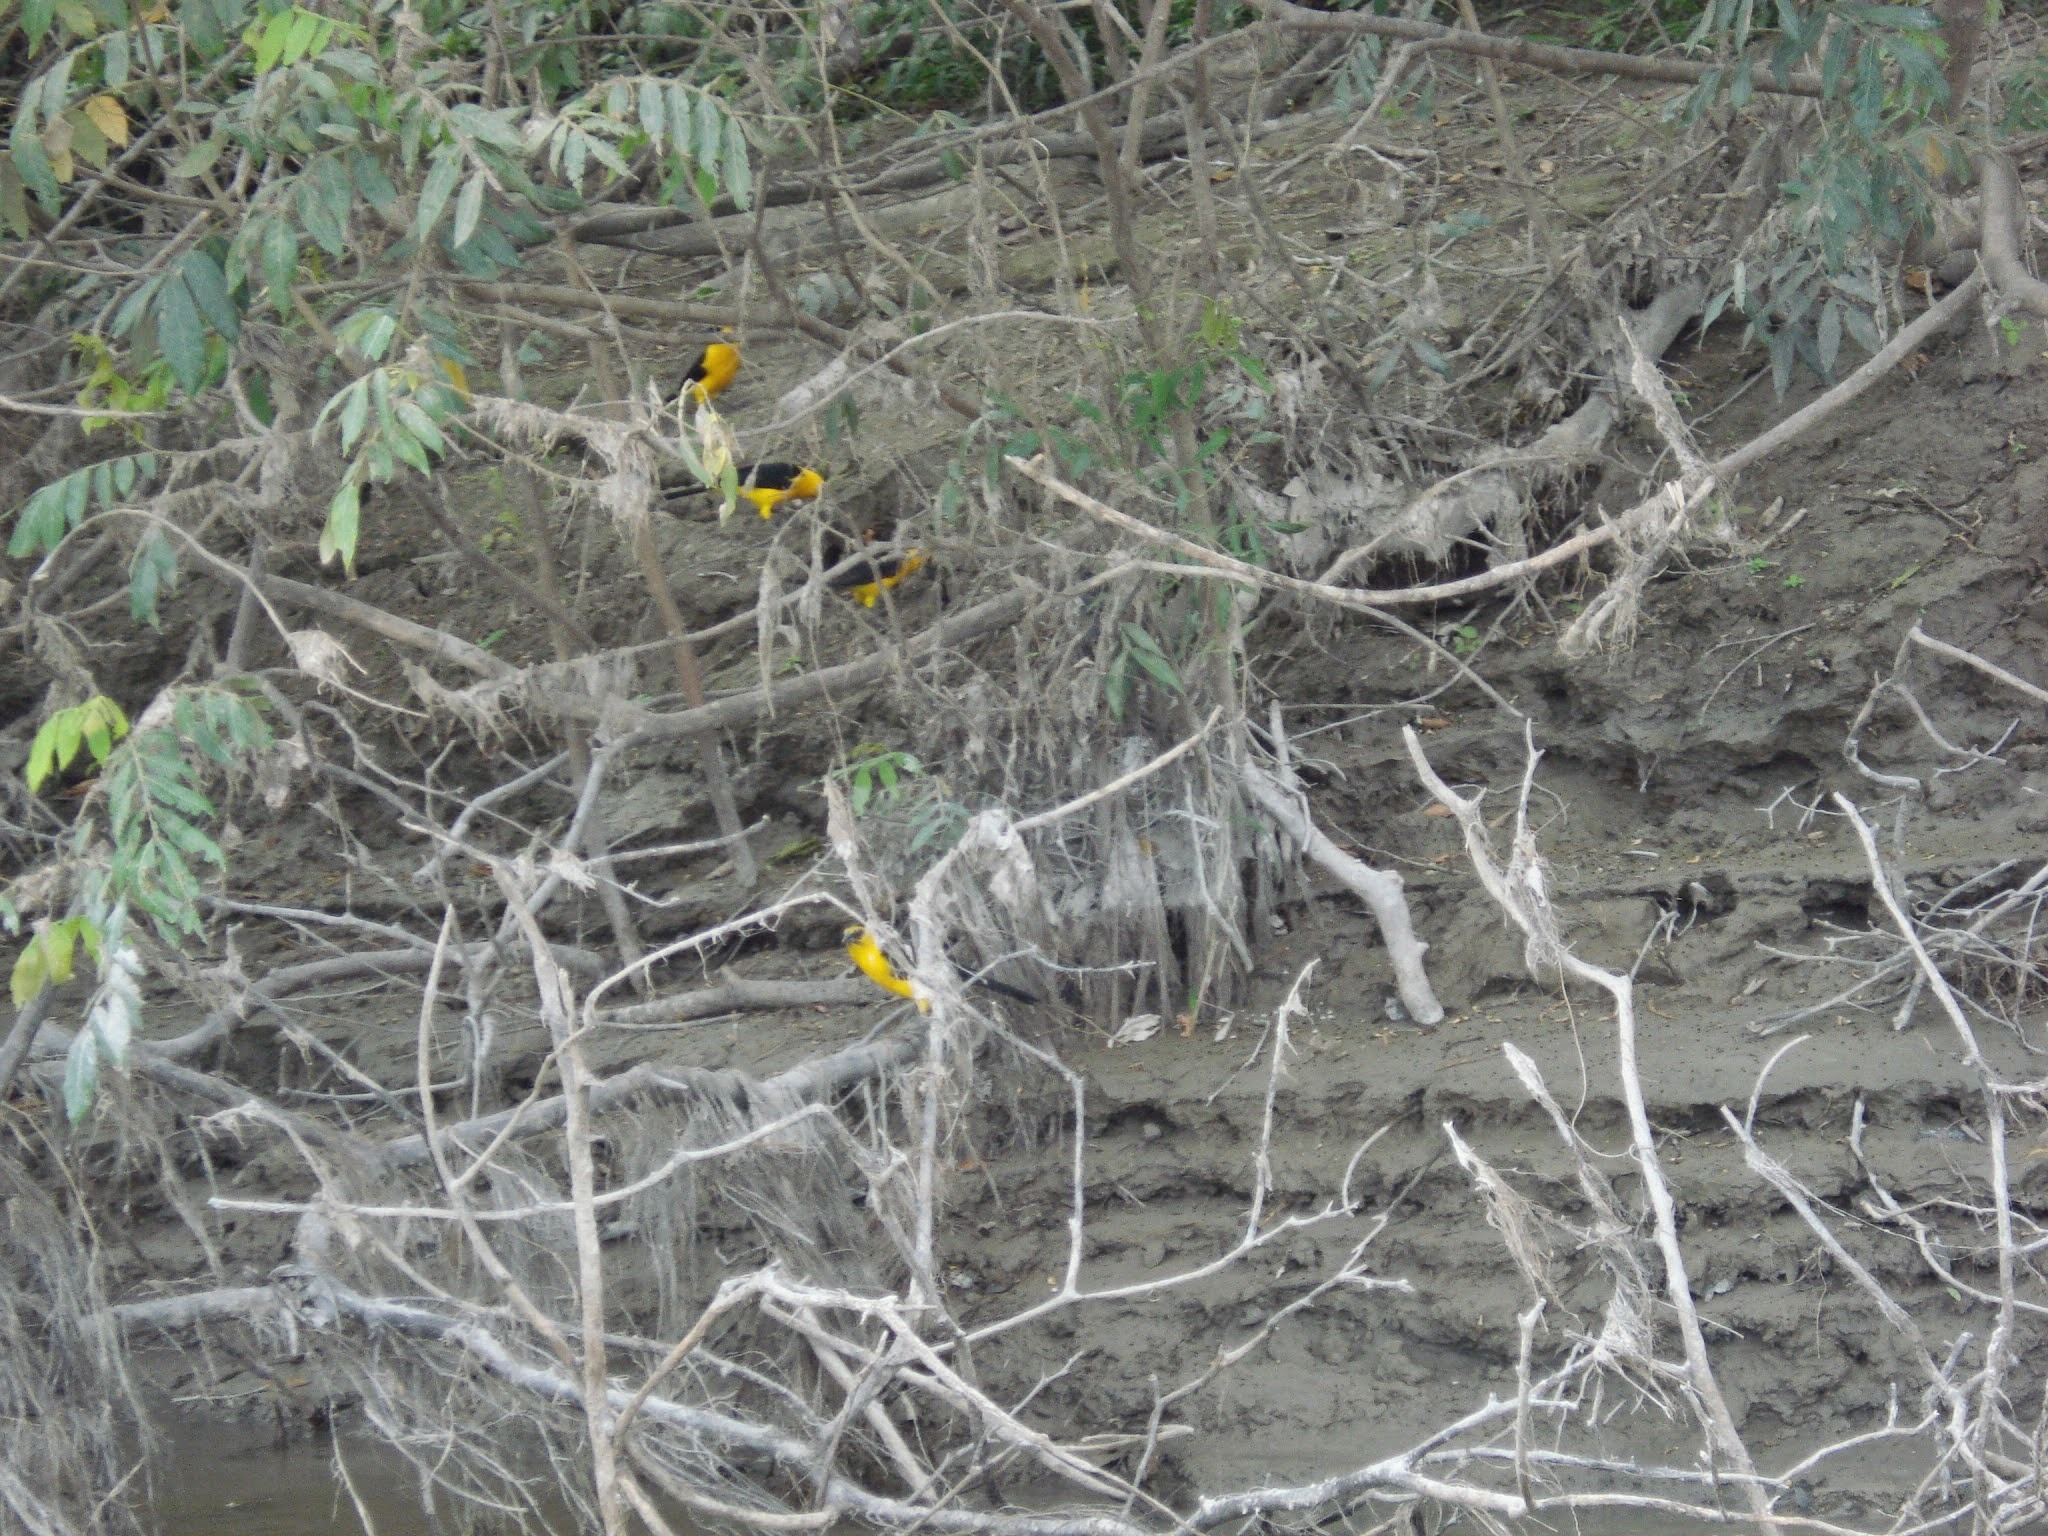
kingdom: Animalia
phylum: Chordata
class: Aves
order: Passeriformes
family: Icteridae
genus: Gymnomystax
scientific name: Gymnomystax mexicanus
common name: Oriole blackbird
